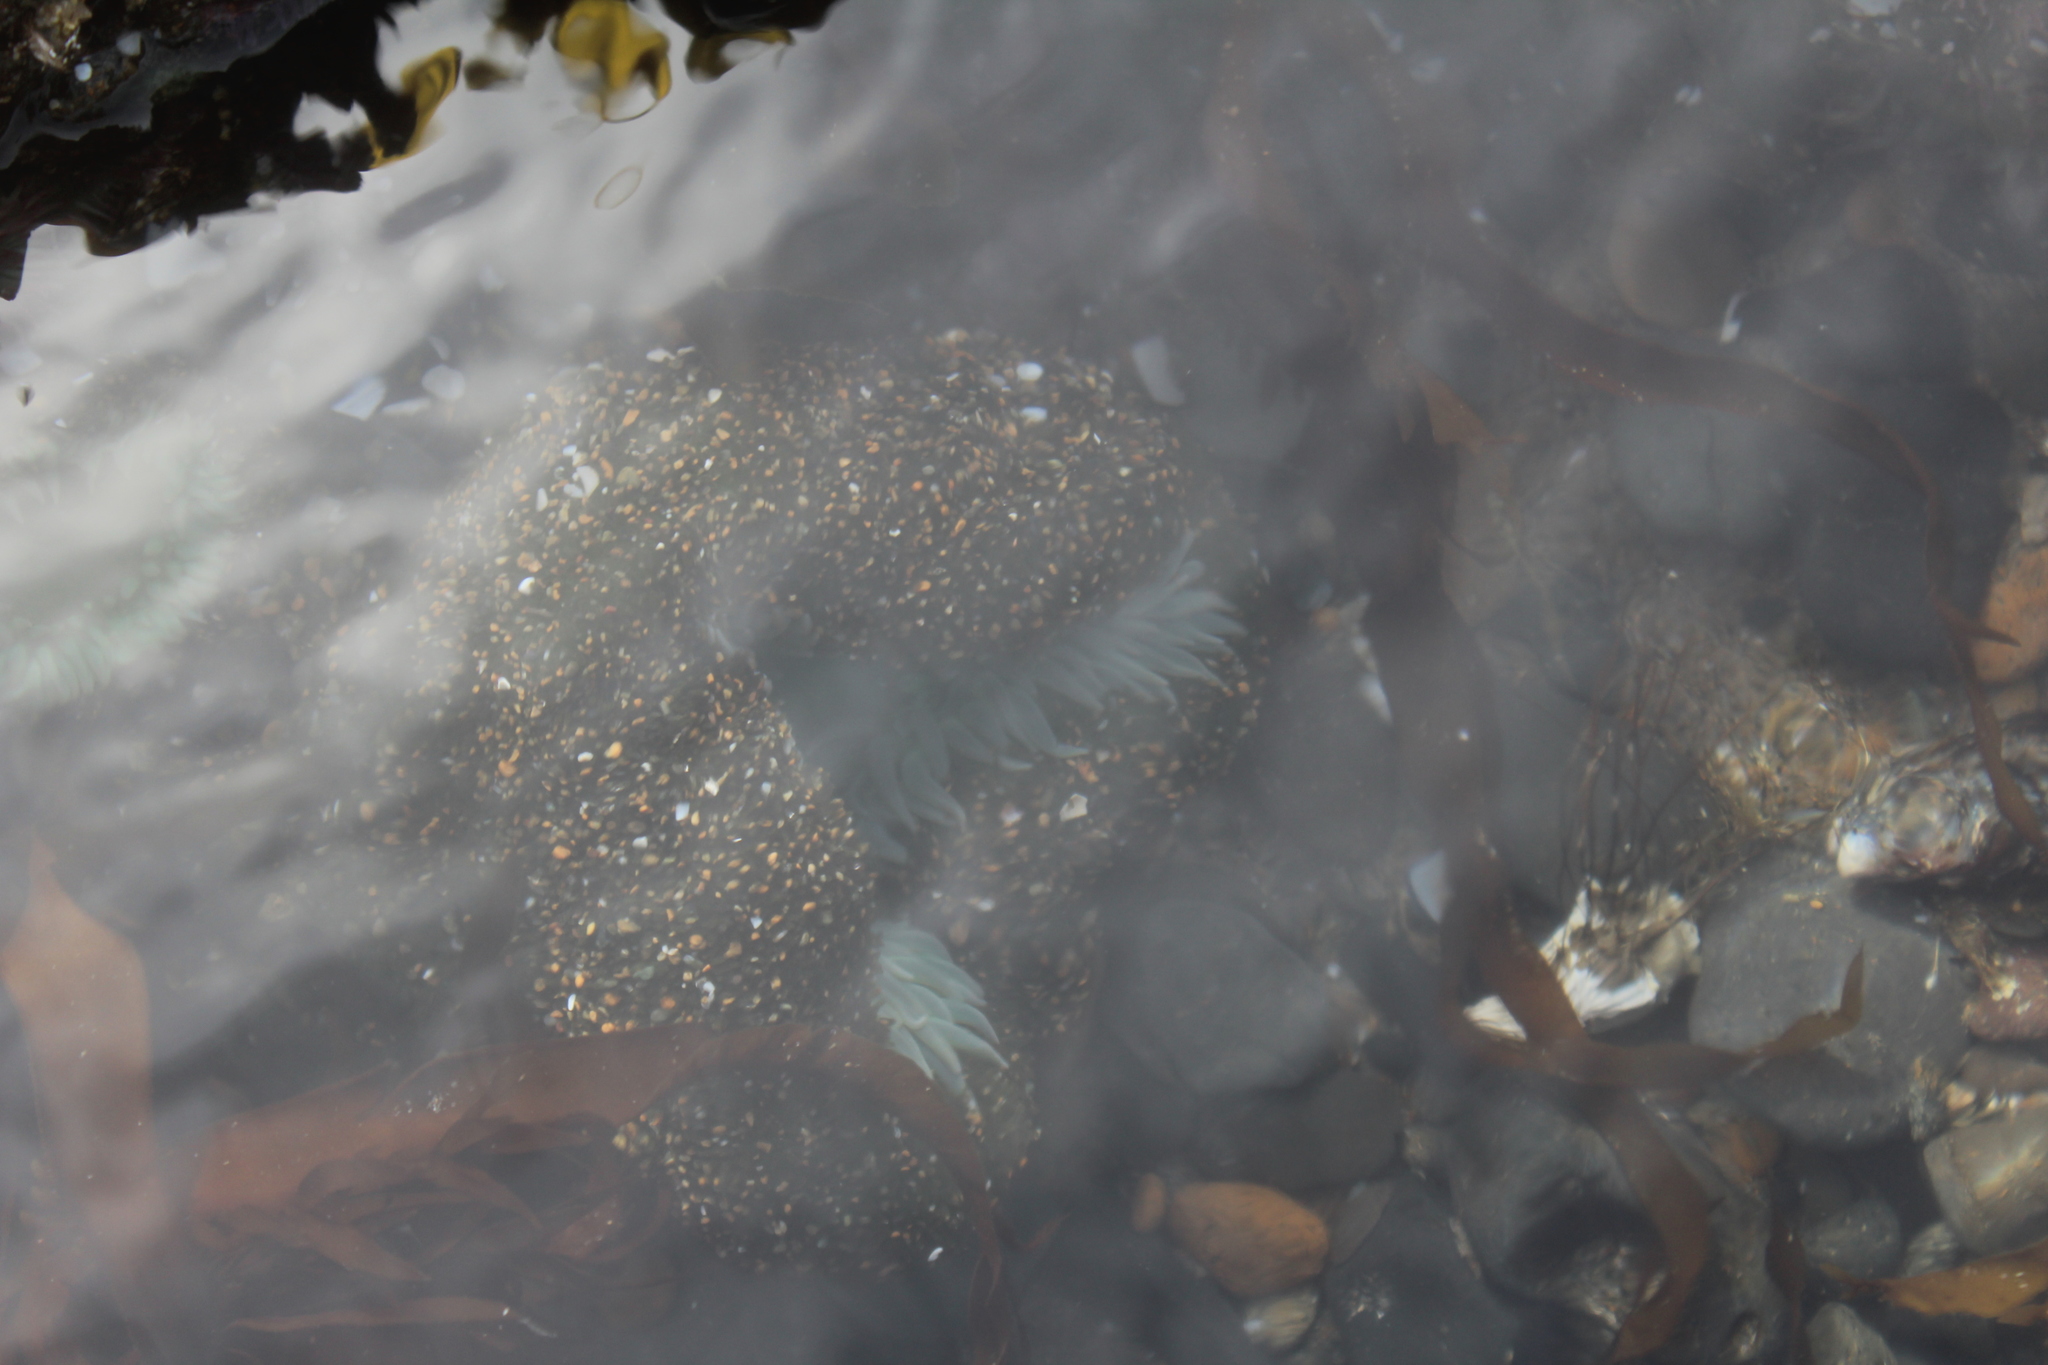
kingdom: Animalia
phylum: Cnidaria
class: Anthozoa
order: Actiniaria
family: Actiniidae
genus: Anthopleura
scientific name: Anthopleura xanthogrammica
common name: Giant green anemone
